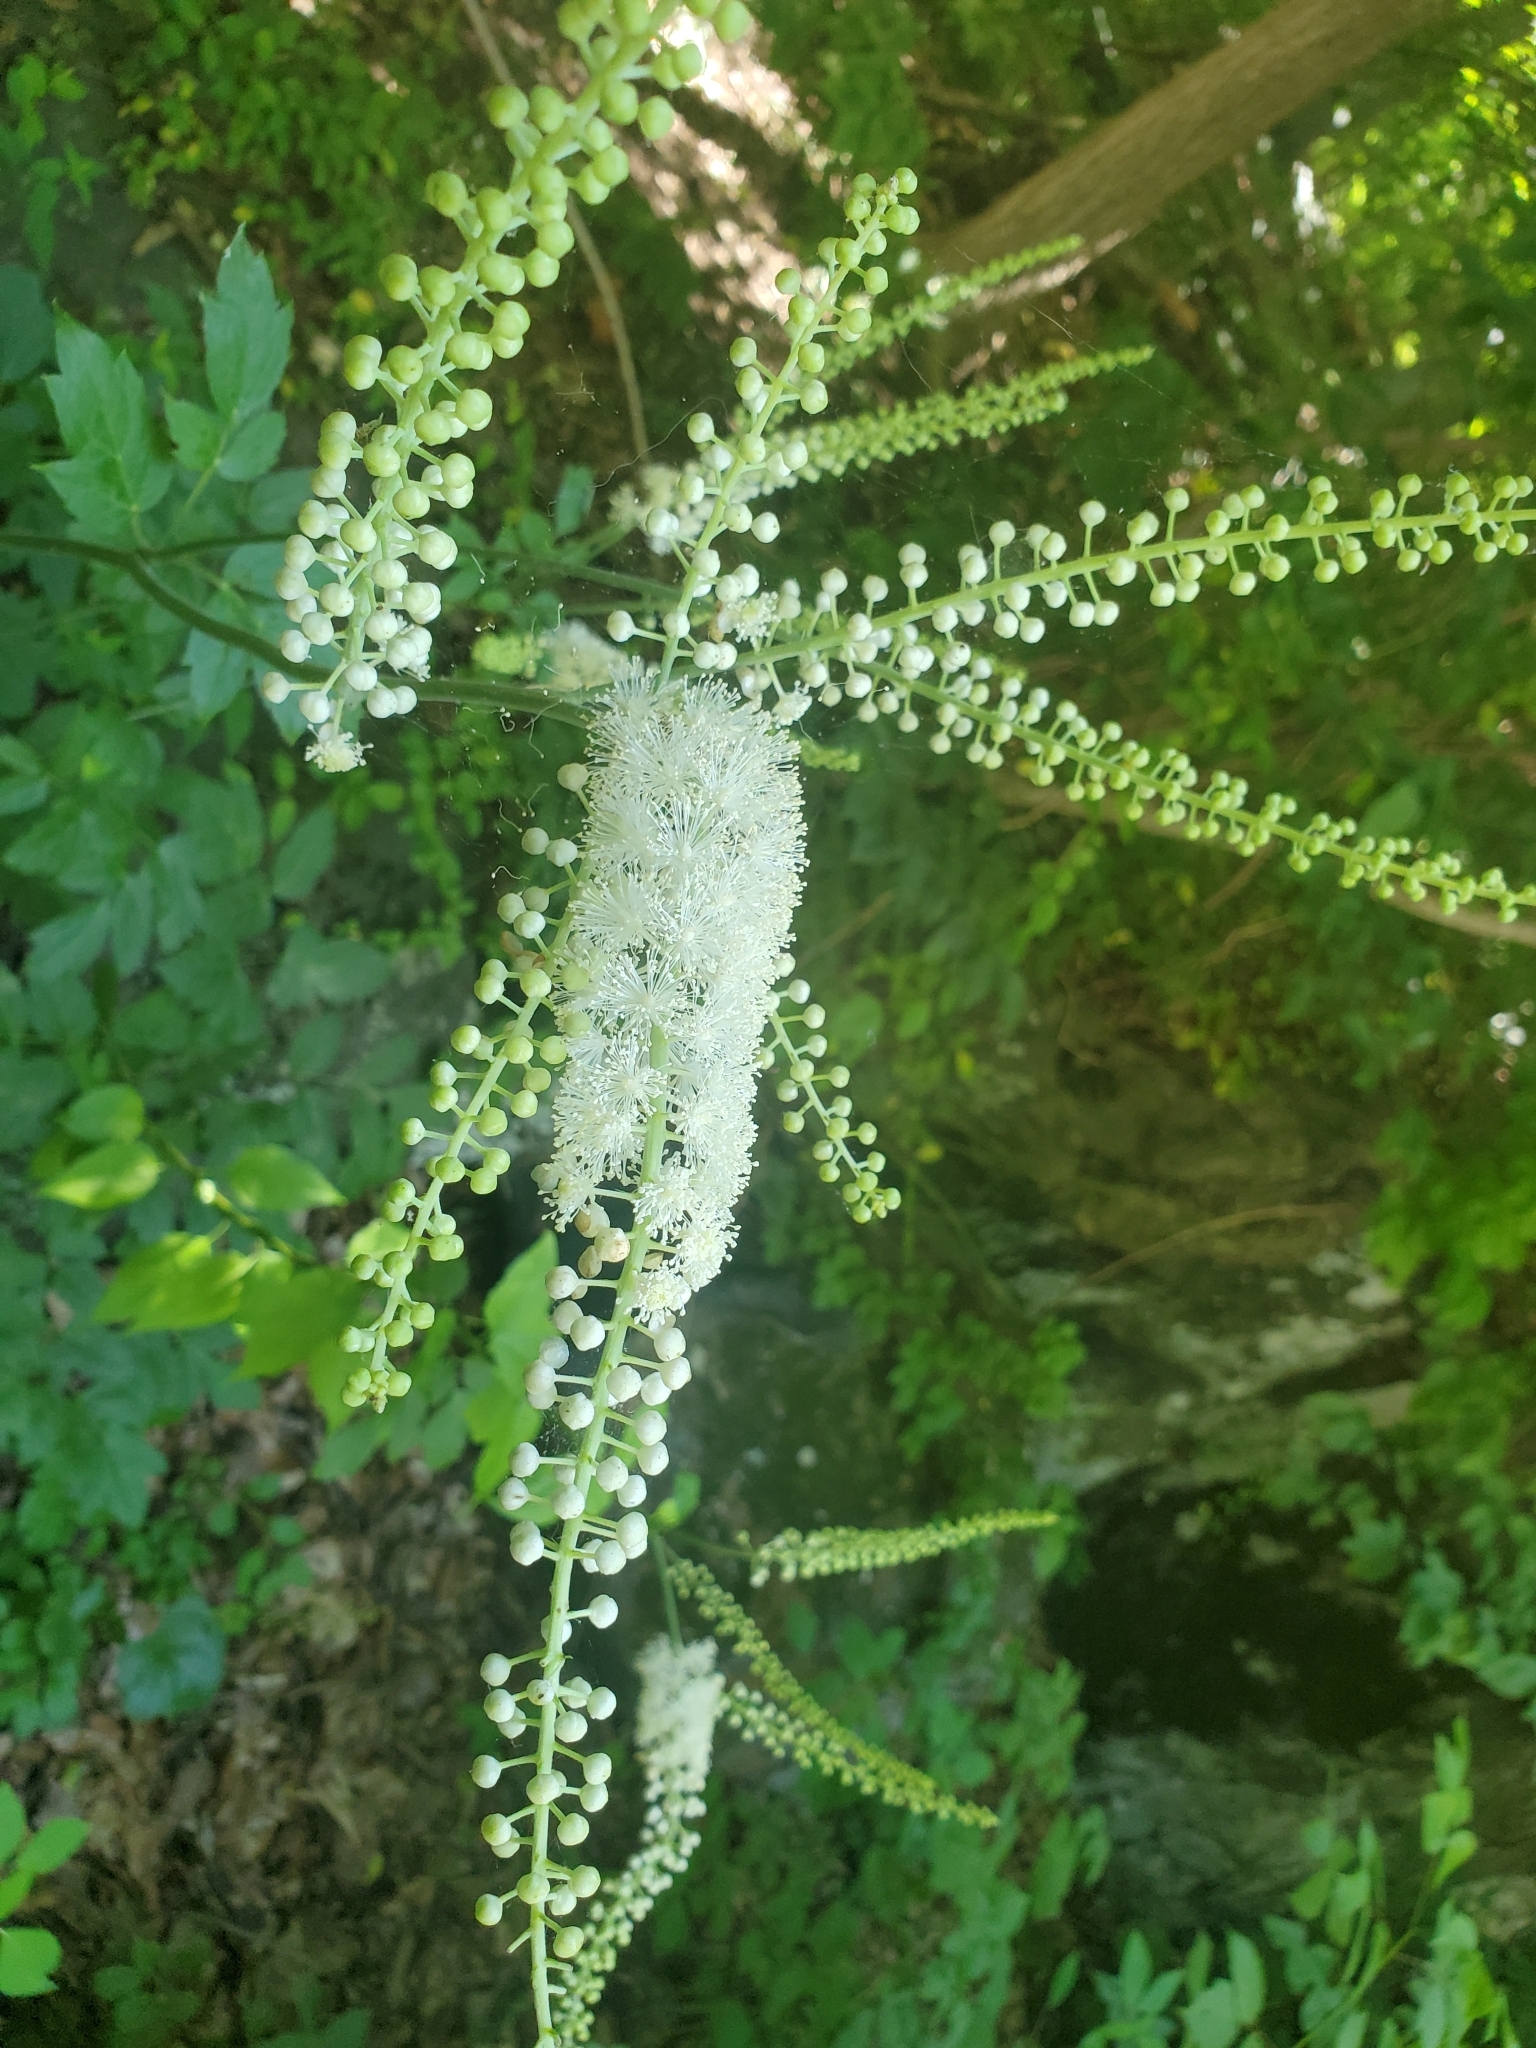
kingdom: Plantae
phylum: Tracheophyta
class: Magnoliopsida
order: Ranunculales
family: Ranunculaceae
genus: Actaea
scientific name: Actaea racemosa
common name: Black cohosh
